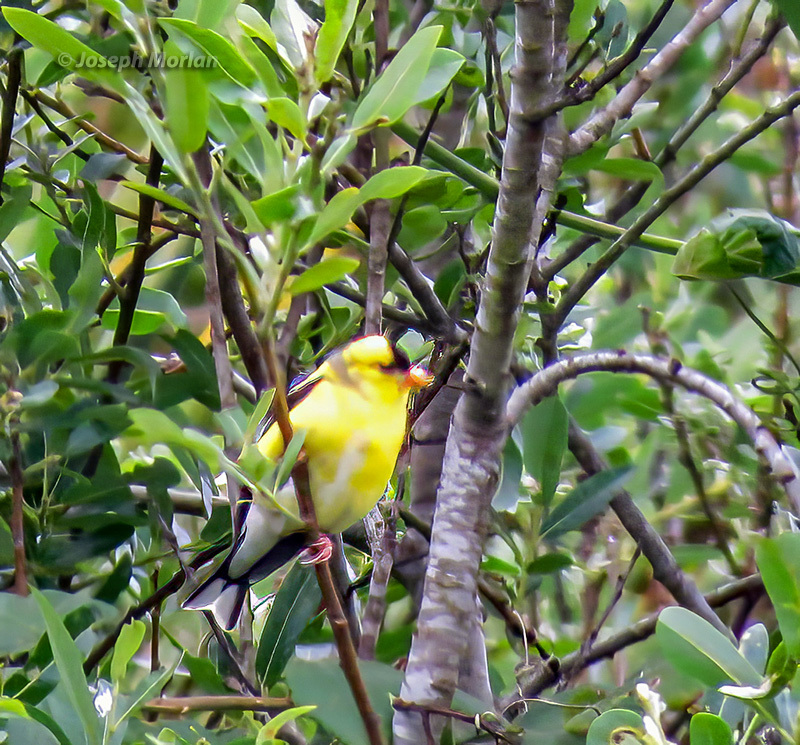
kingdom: Animalia
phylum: Chordata
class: Aves
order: Passeriformes
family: Fringillidae
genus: Spinus
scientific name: Spinus tristis
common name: American goldfinch
